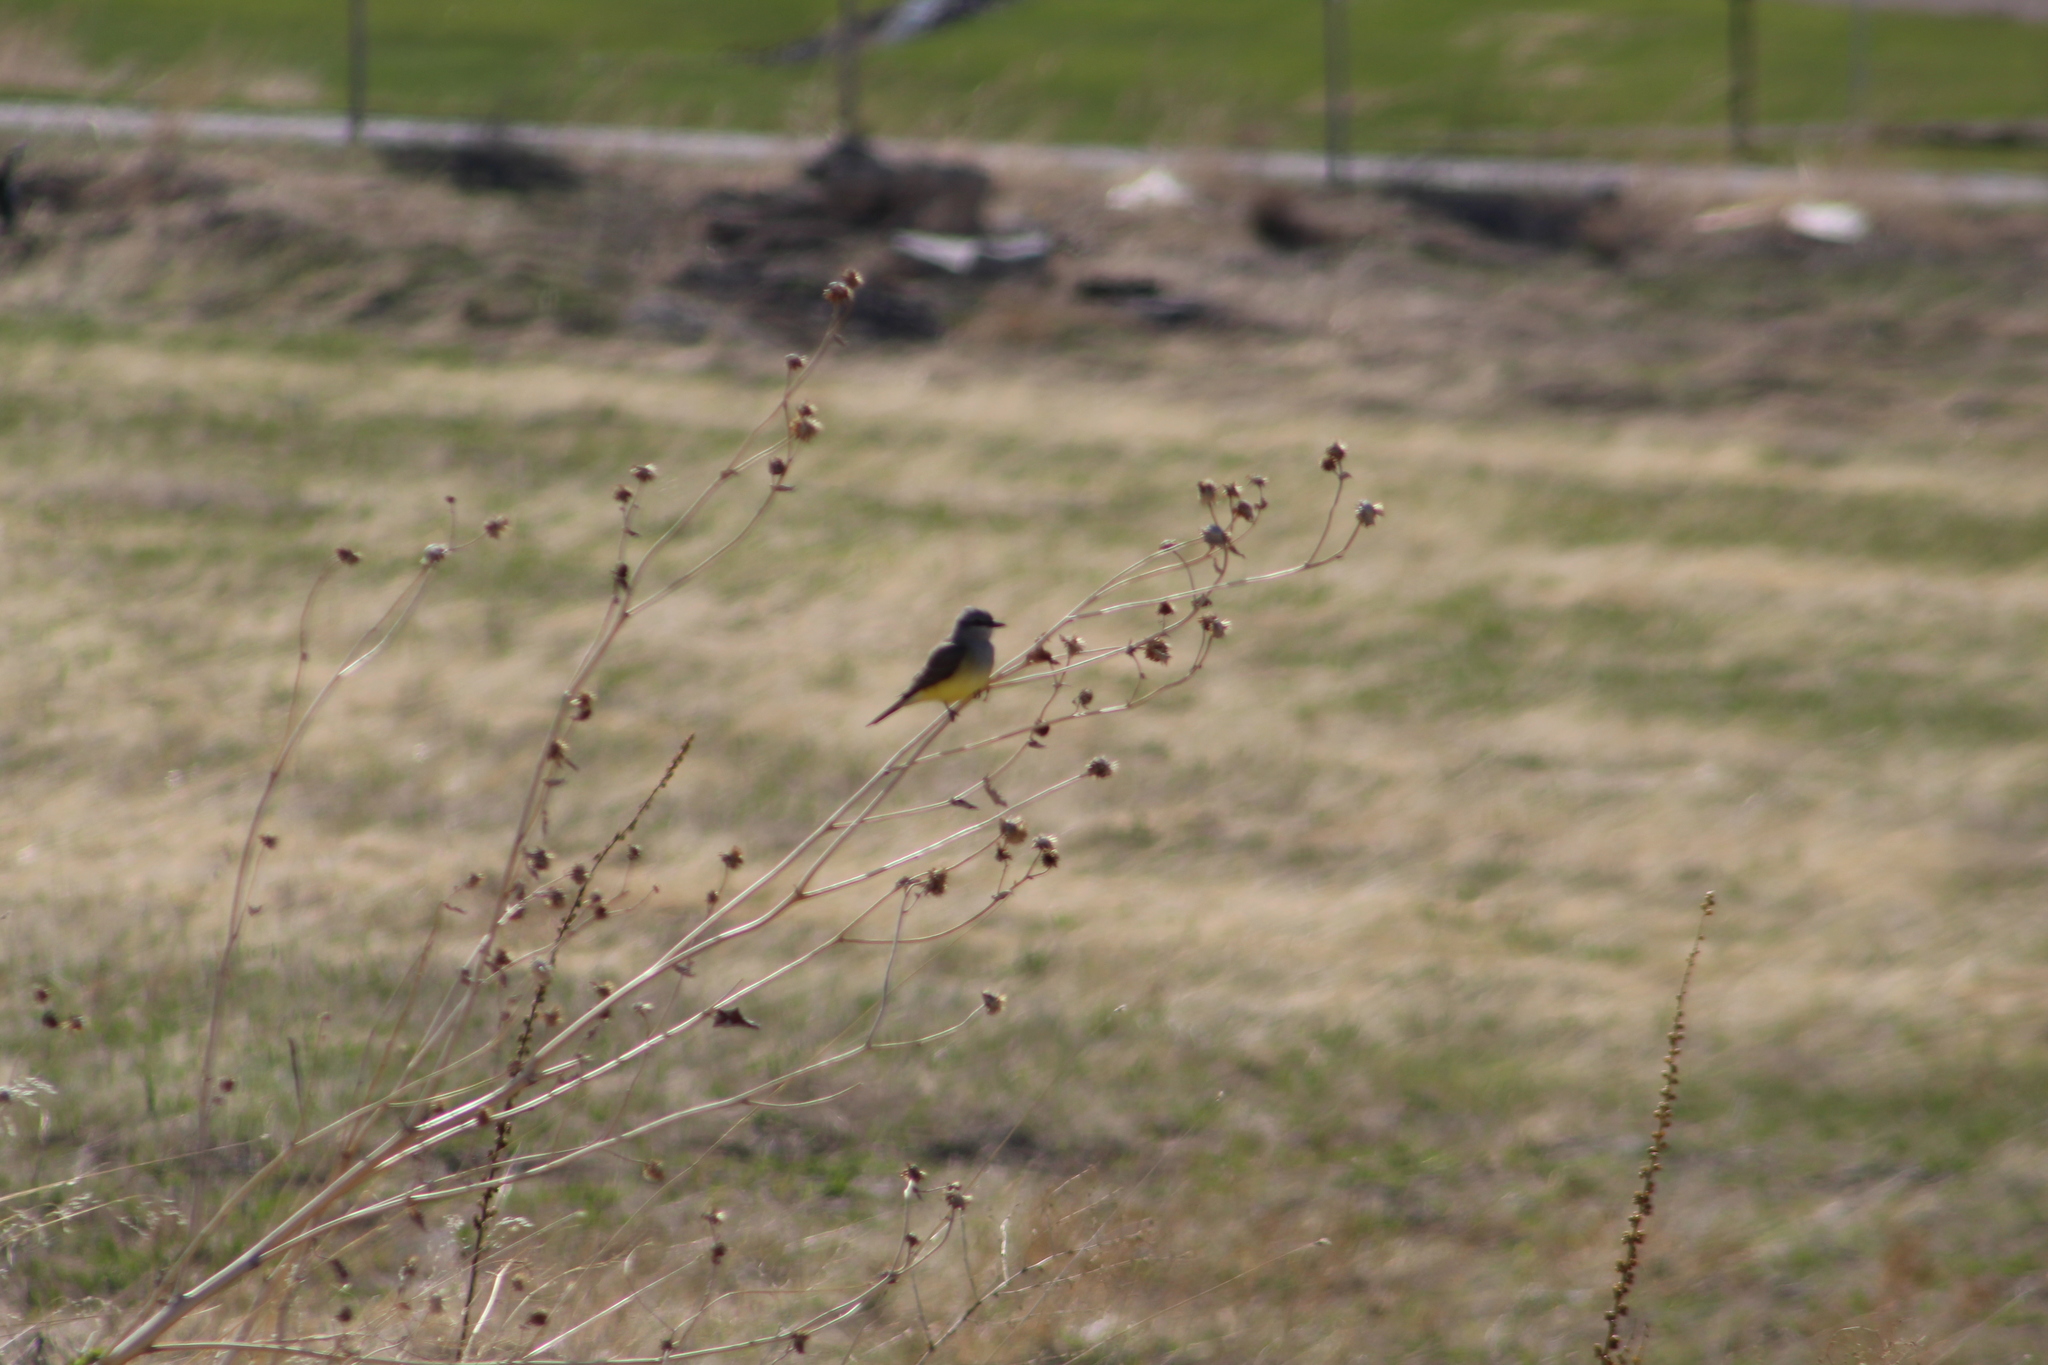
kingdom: Animalia
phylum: Chordata
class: Aves
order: Passeriformes
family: Tyrannidae
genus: Tyrannus
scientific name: Tyrannus verticalis
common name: Western kingbird
